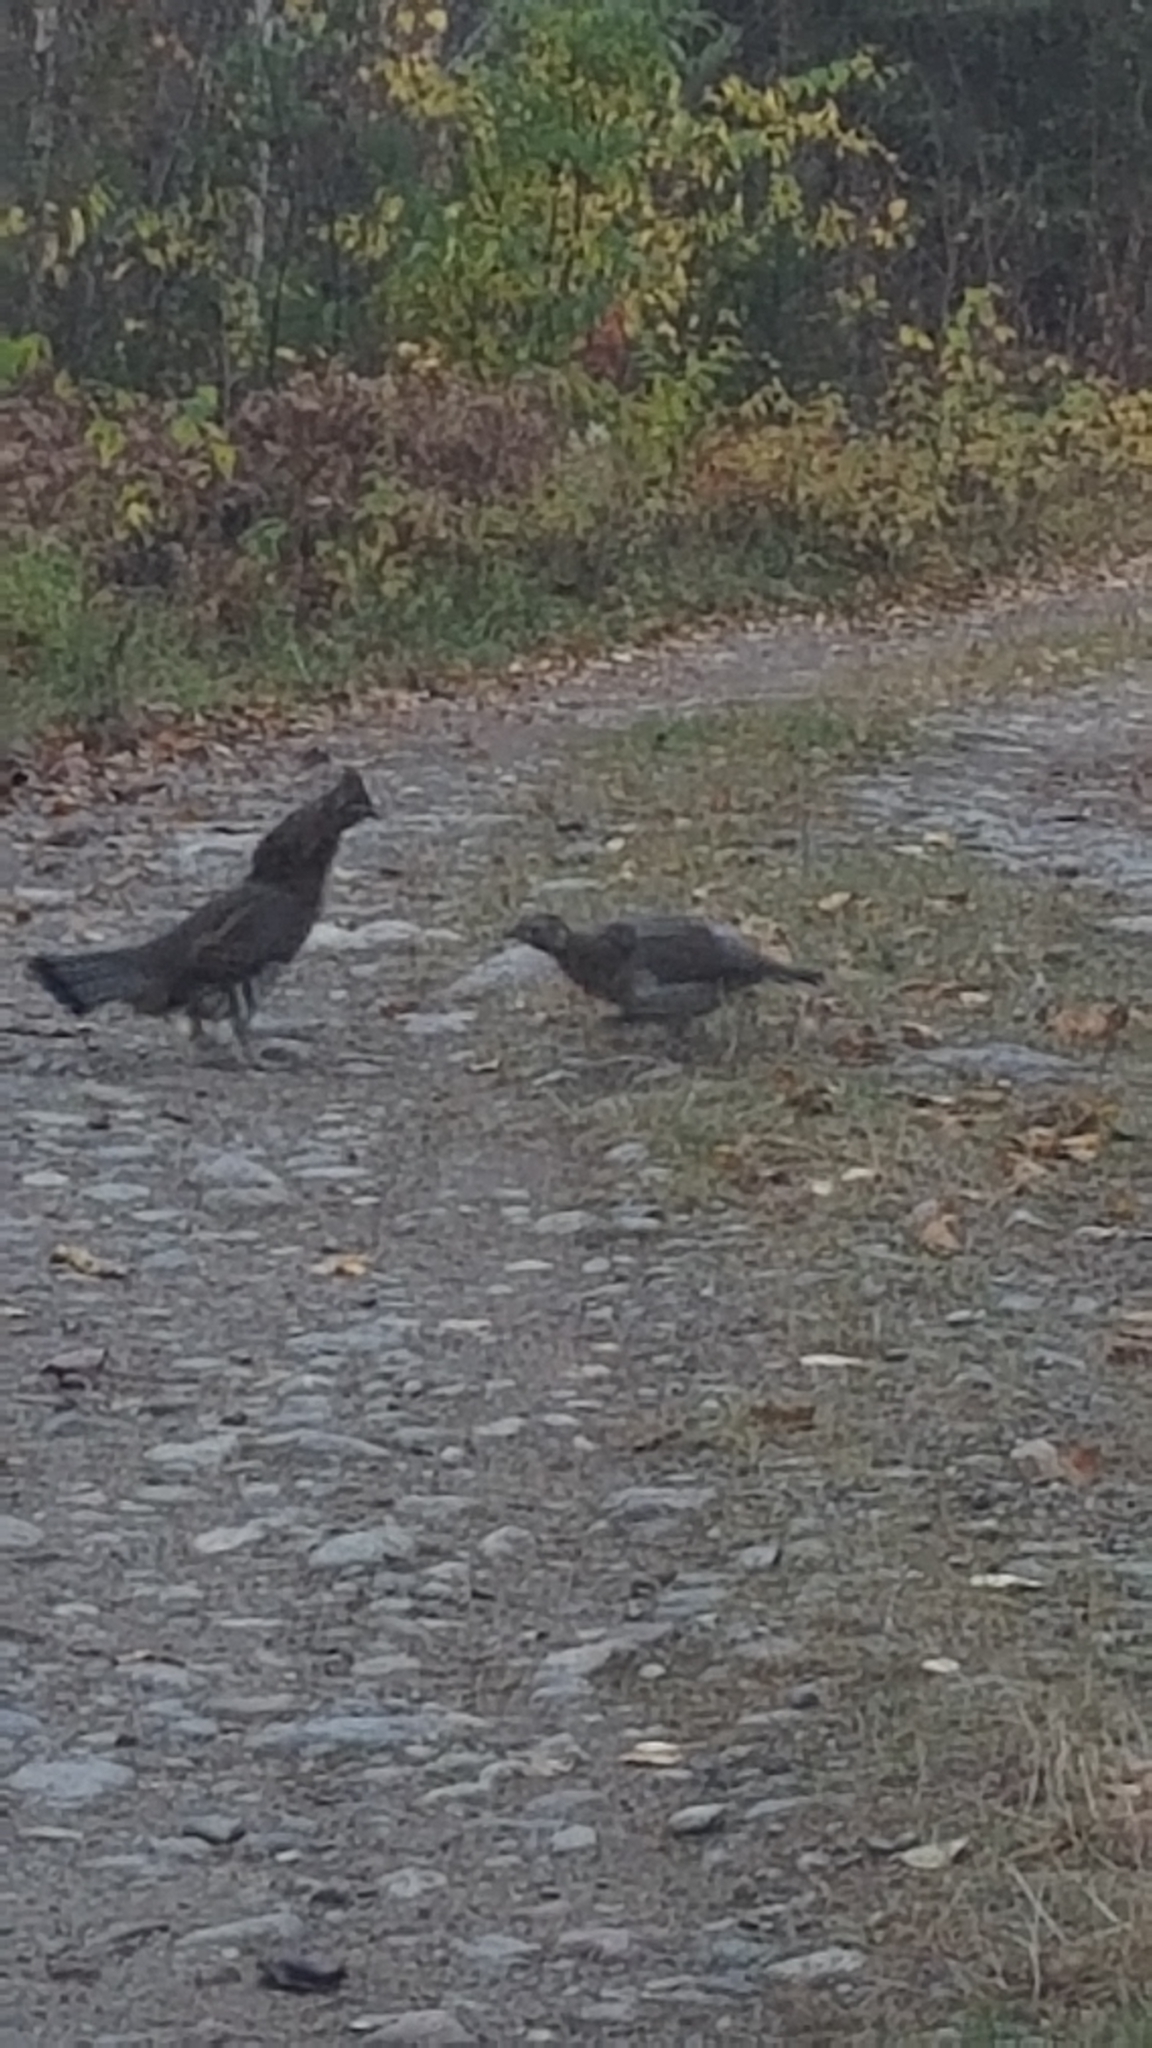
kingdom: Animalia
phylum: Chordata
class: Aves
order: Galliformes
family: Phasianidae
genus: Bonasa
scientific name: Bonasa umbellus
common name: Ruffed grouse
